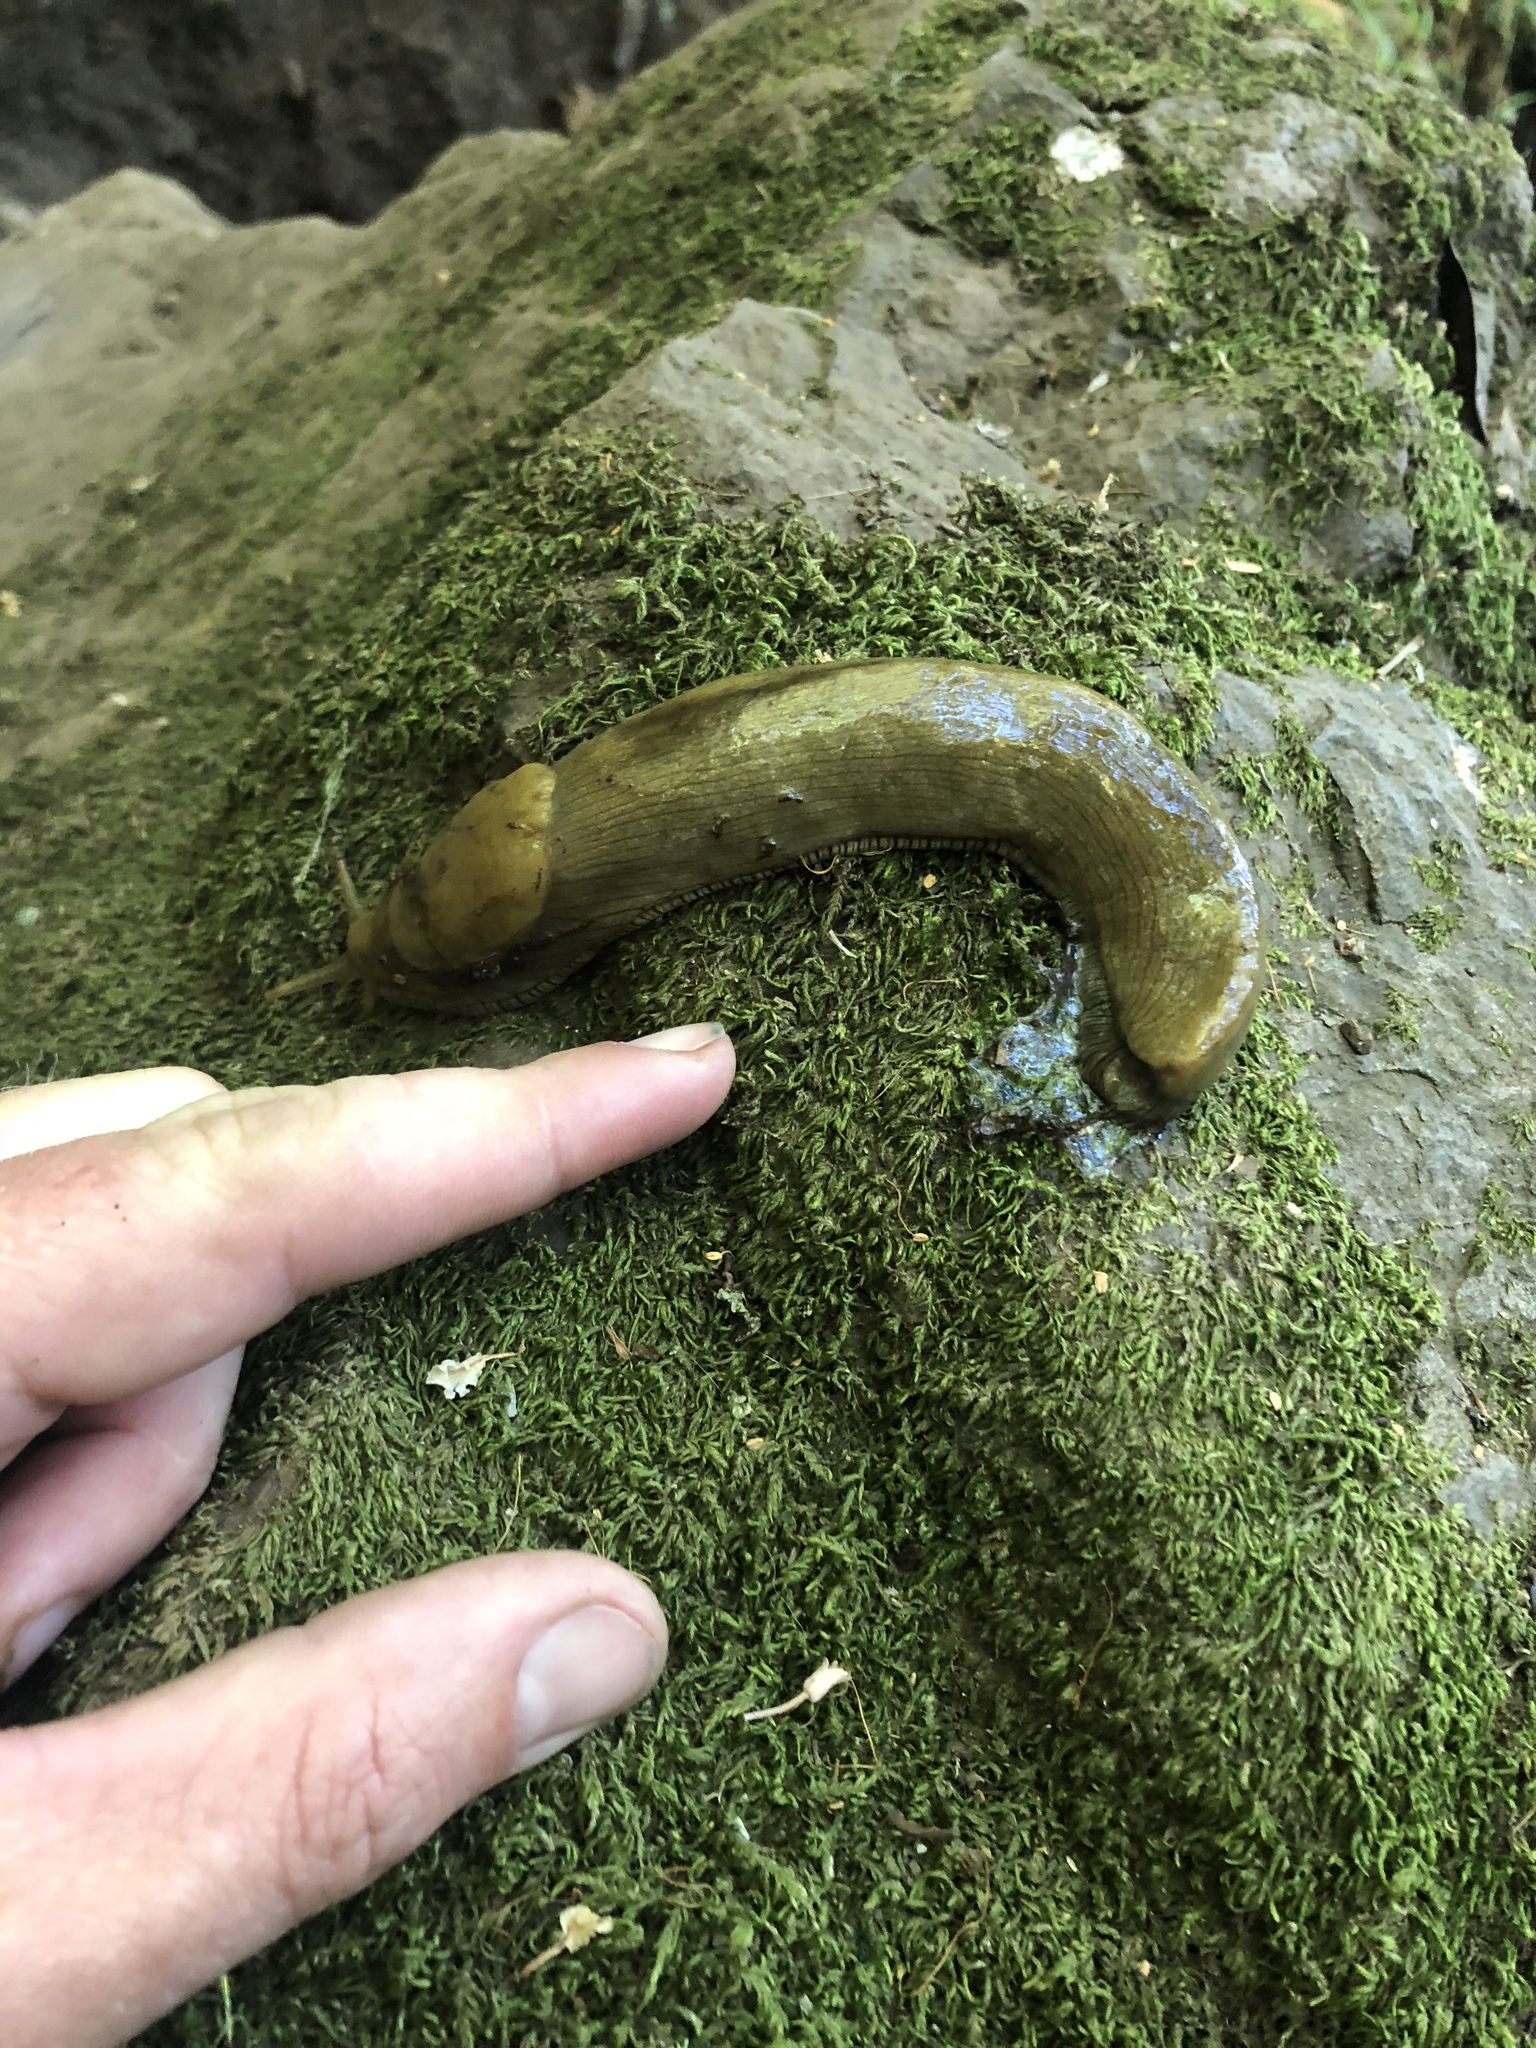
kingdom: Animalia
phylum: Mollusca
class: Gastropoda
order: Stylommatophora
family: Ariolimacidae
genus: Ariolimax
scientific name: Ariolimax buttoni
